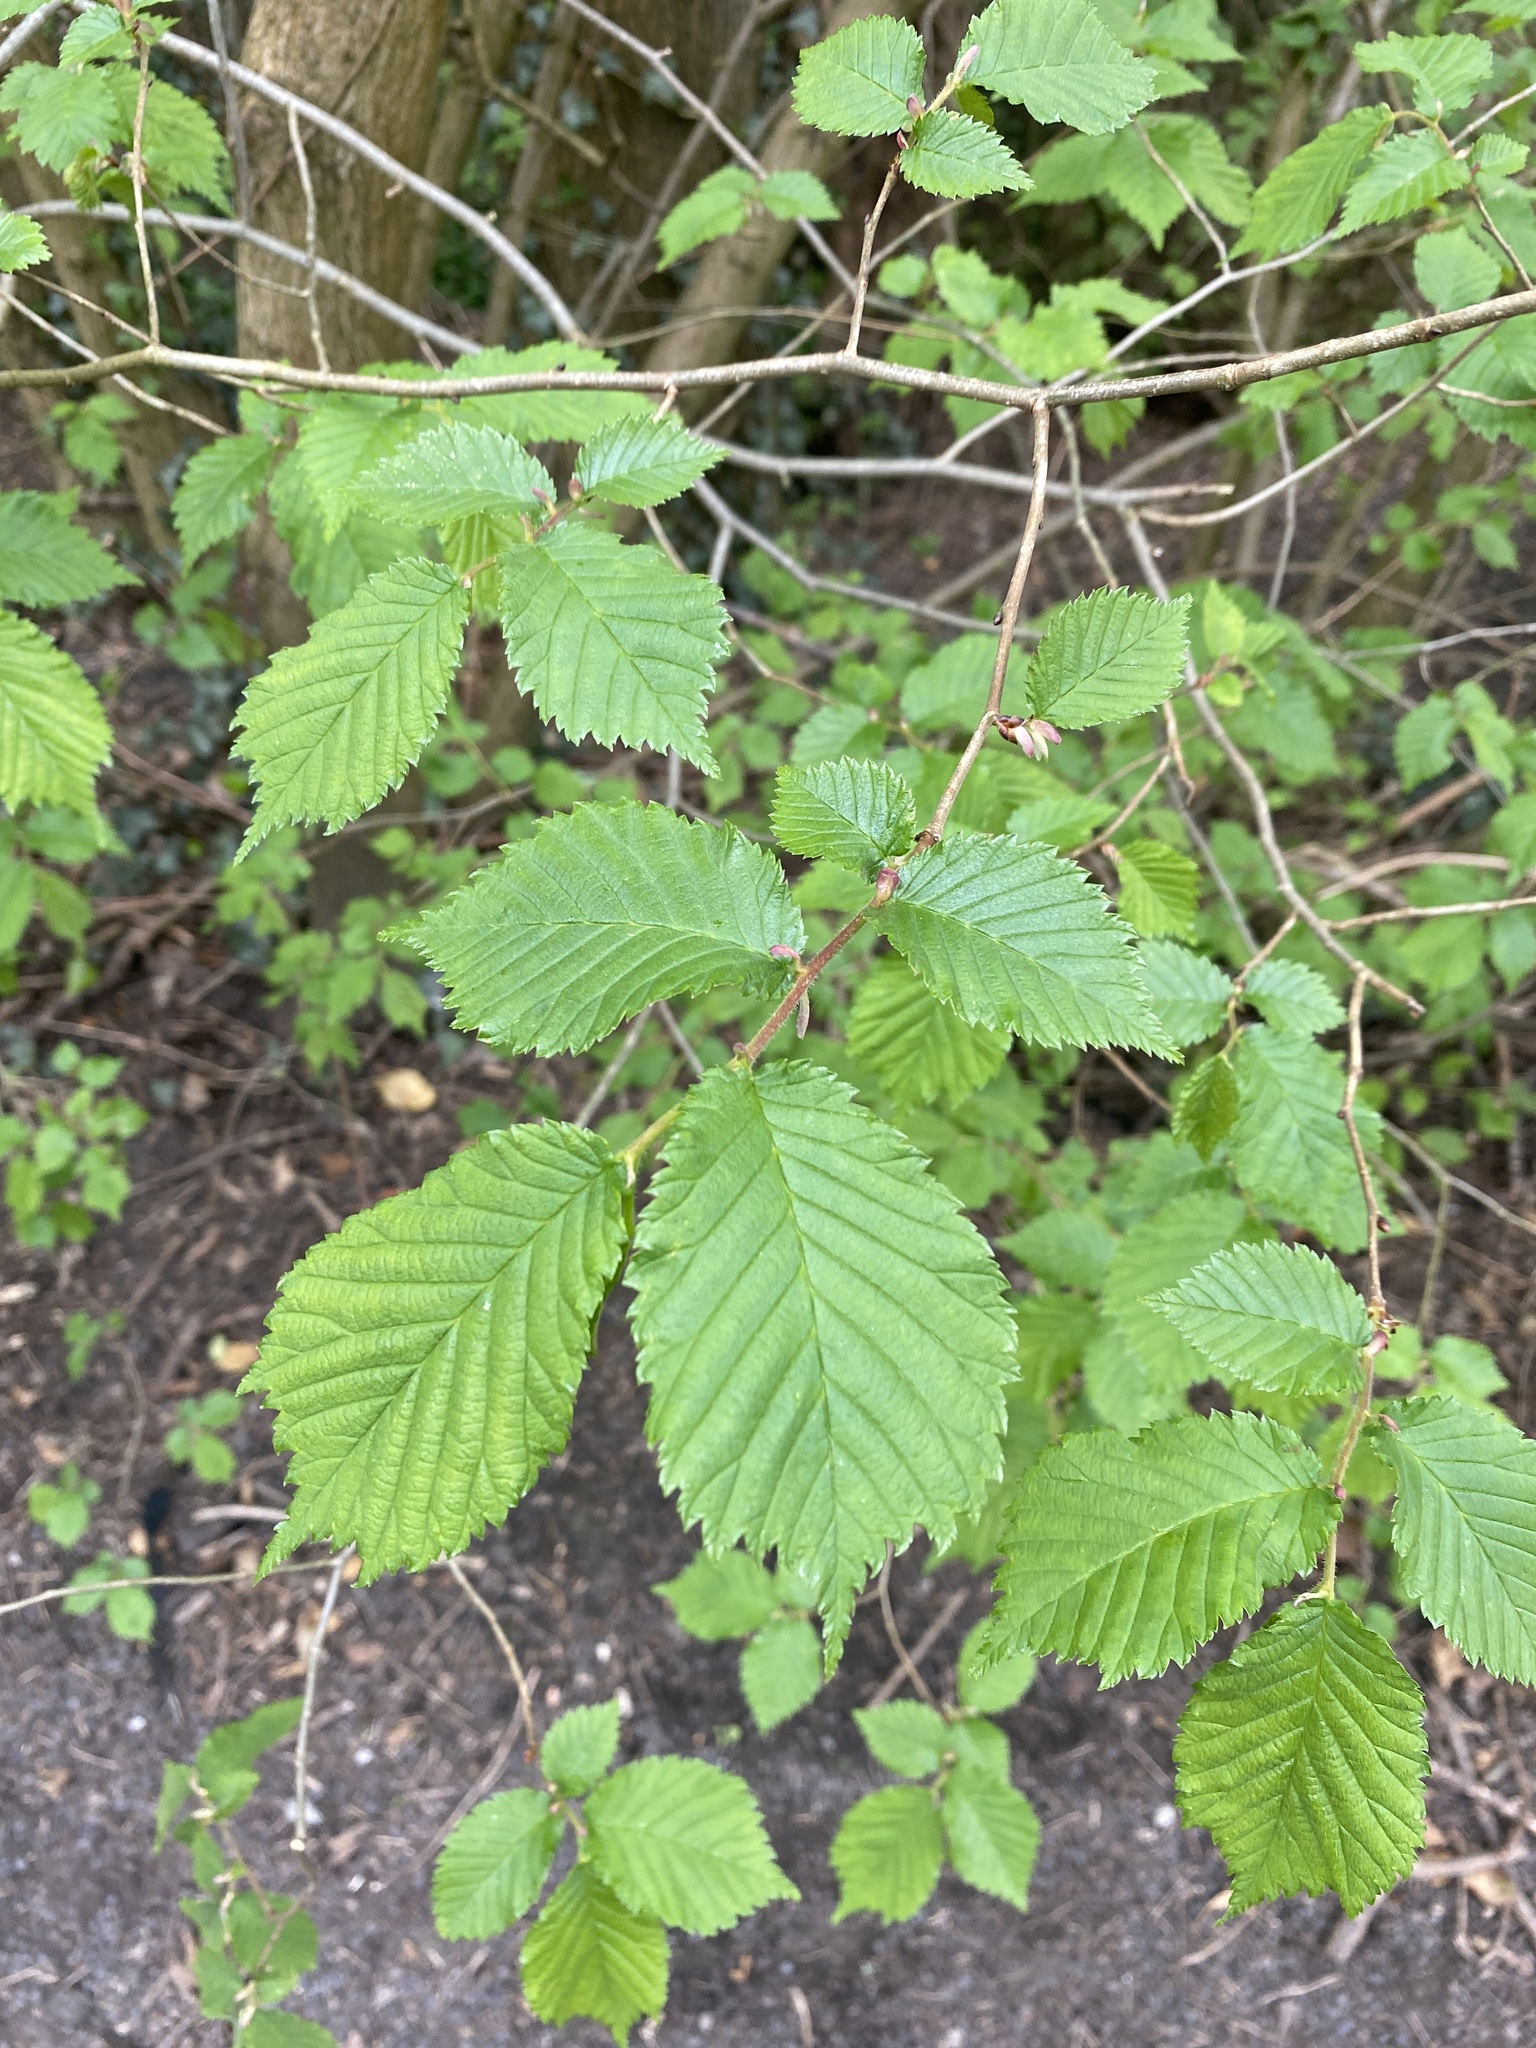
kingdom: Plantae
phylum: Tracheophyta
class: Magnoliopsida
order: Rosales
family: Ulmaceae
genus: Ulmus
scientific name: Ulmus glabra
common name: Wych elm
